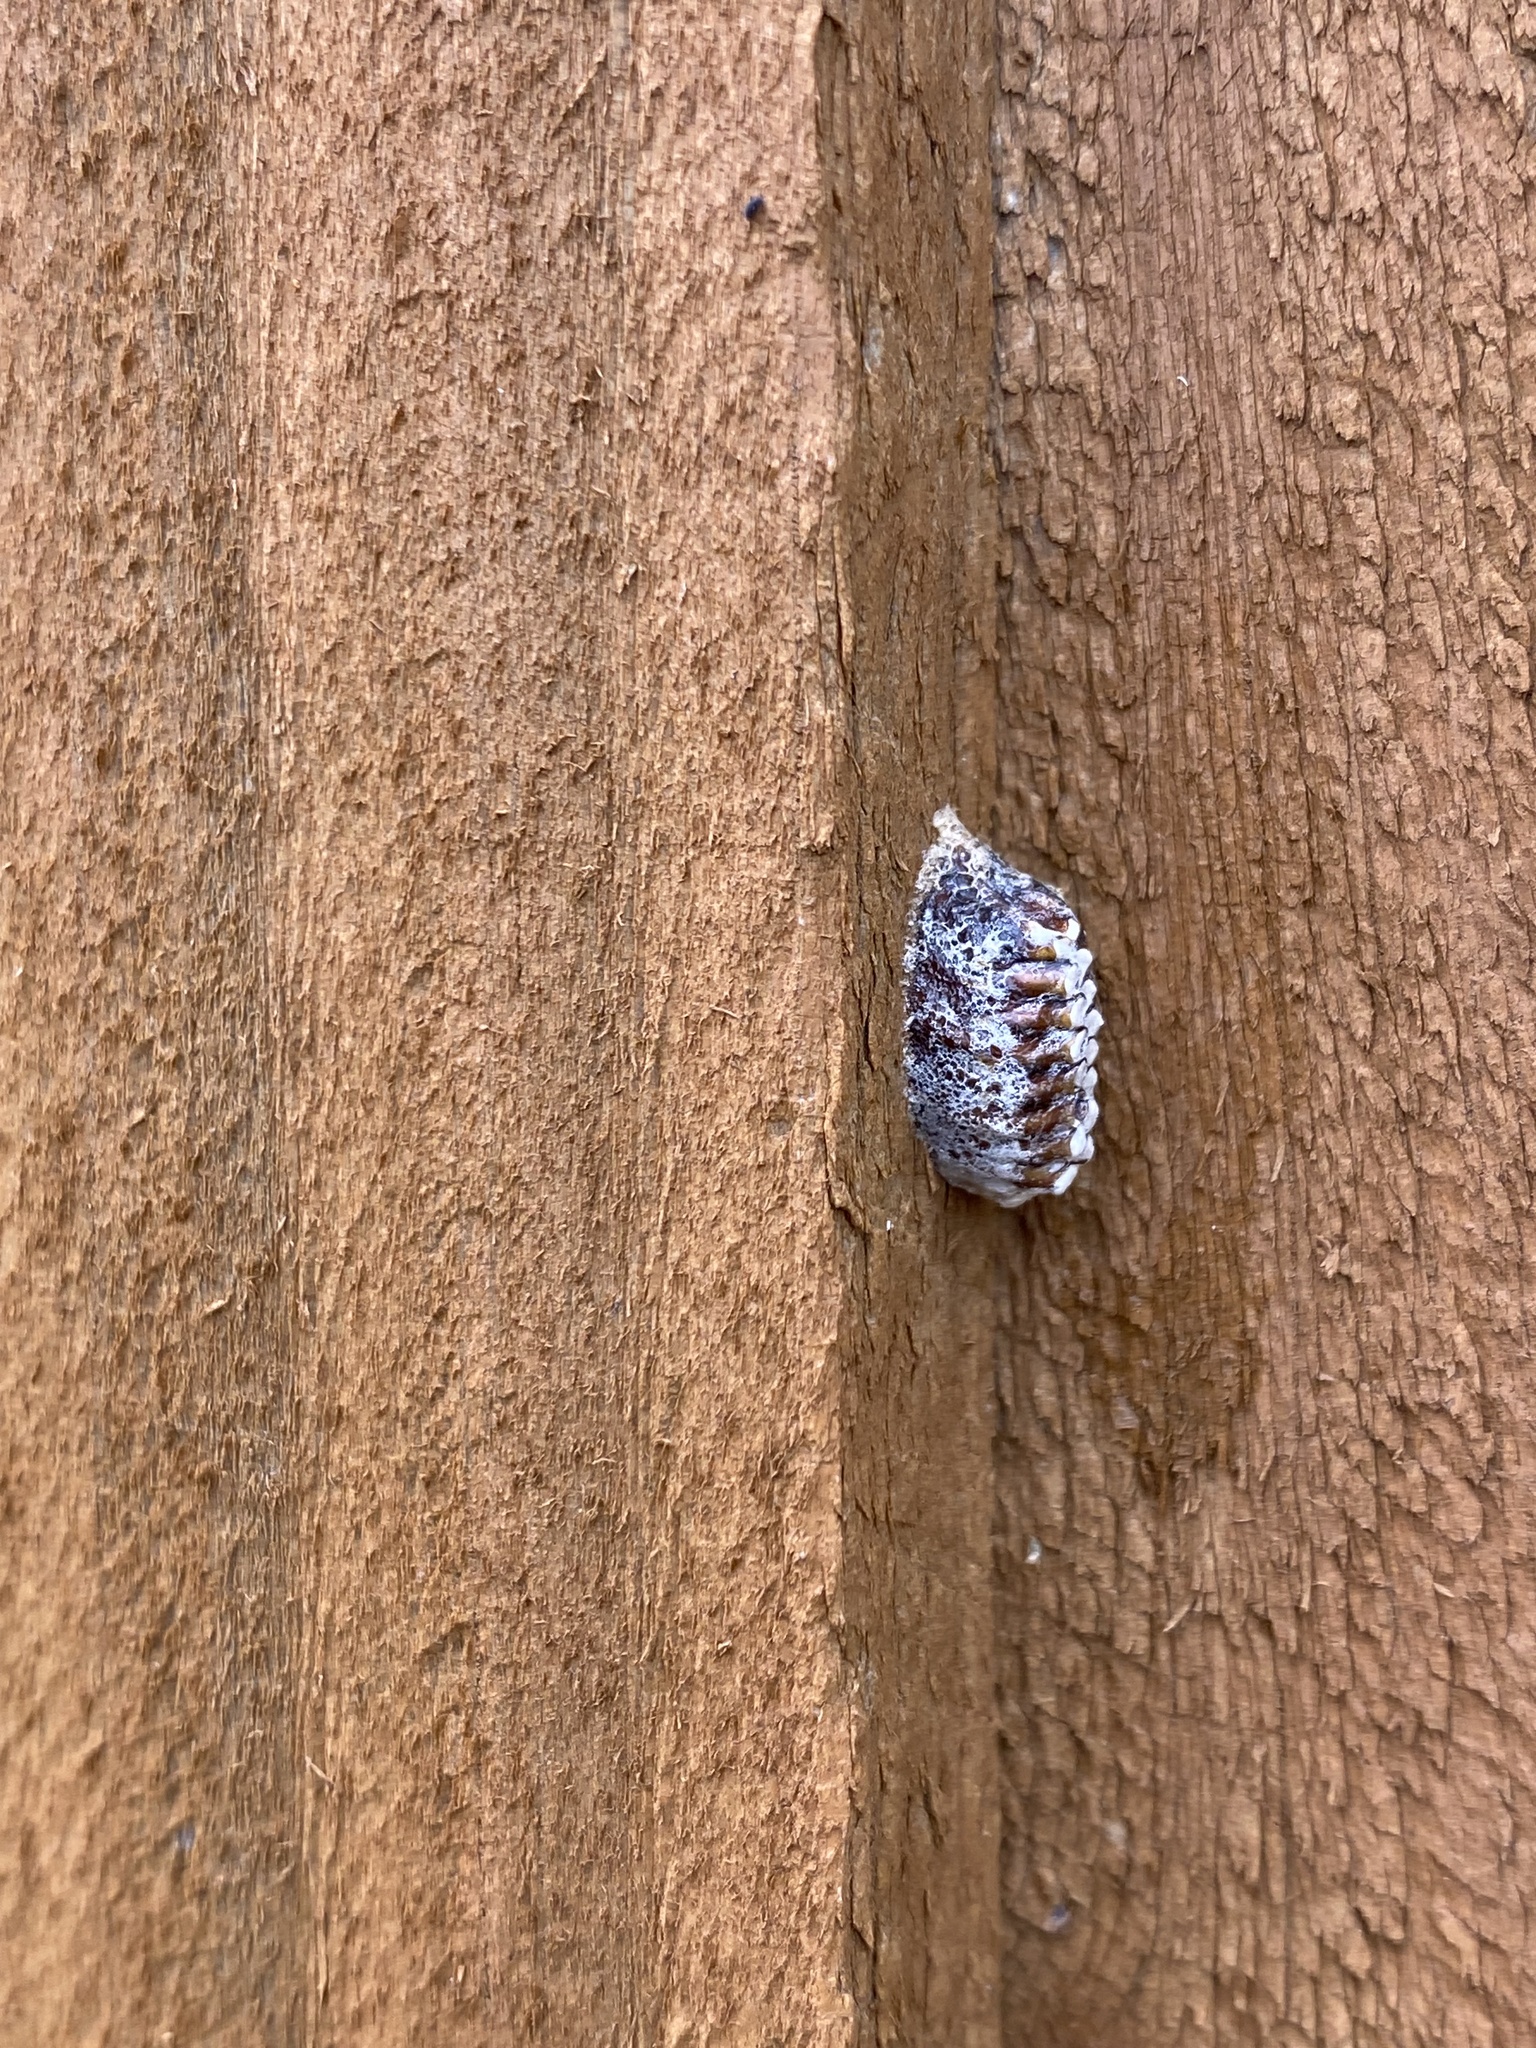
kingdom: Animalia
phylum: Arthropoda
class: Insecta
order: Mantodea
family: Mantidae
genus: Orthodera
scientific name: Orthodera novaezealandiae
